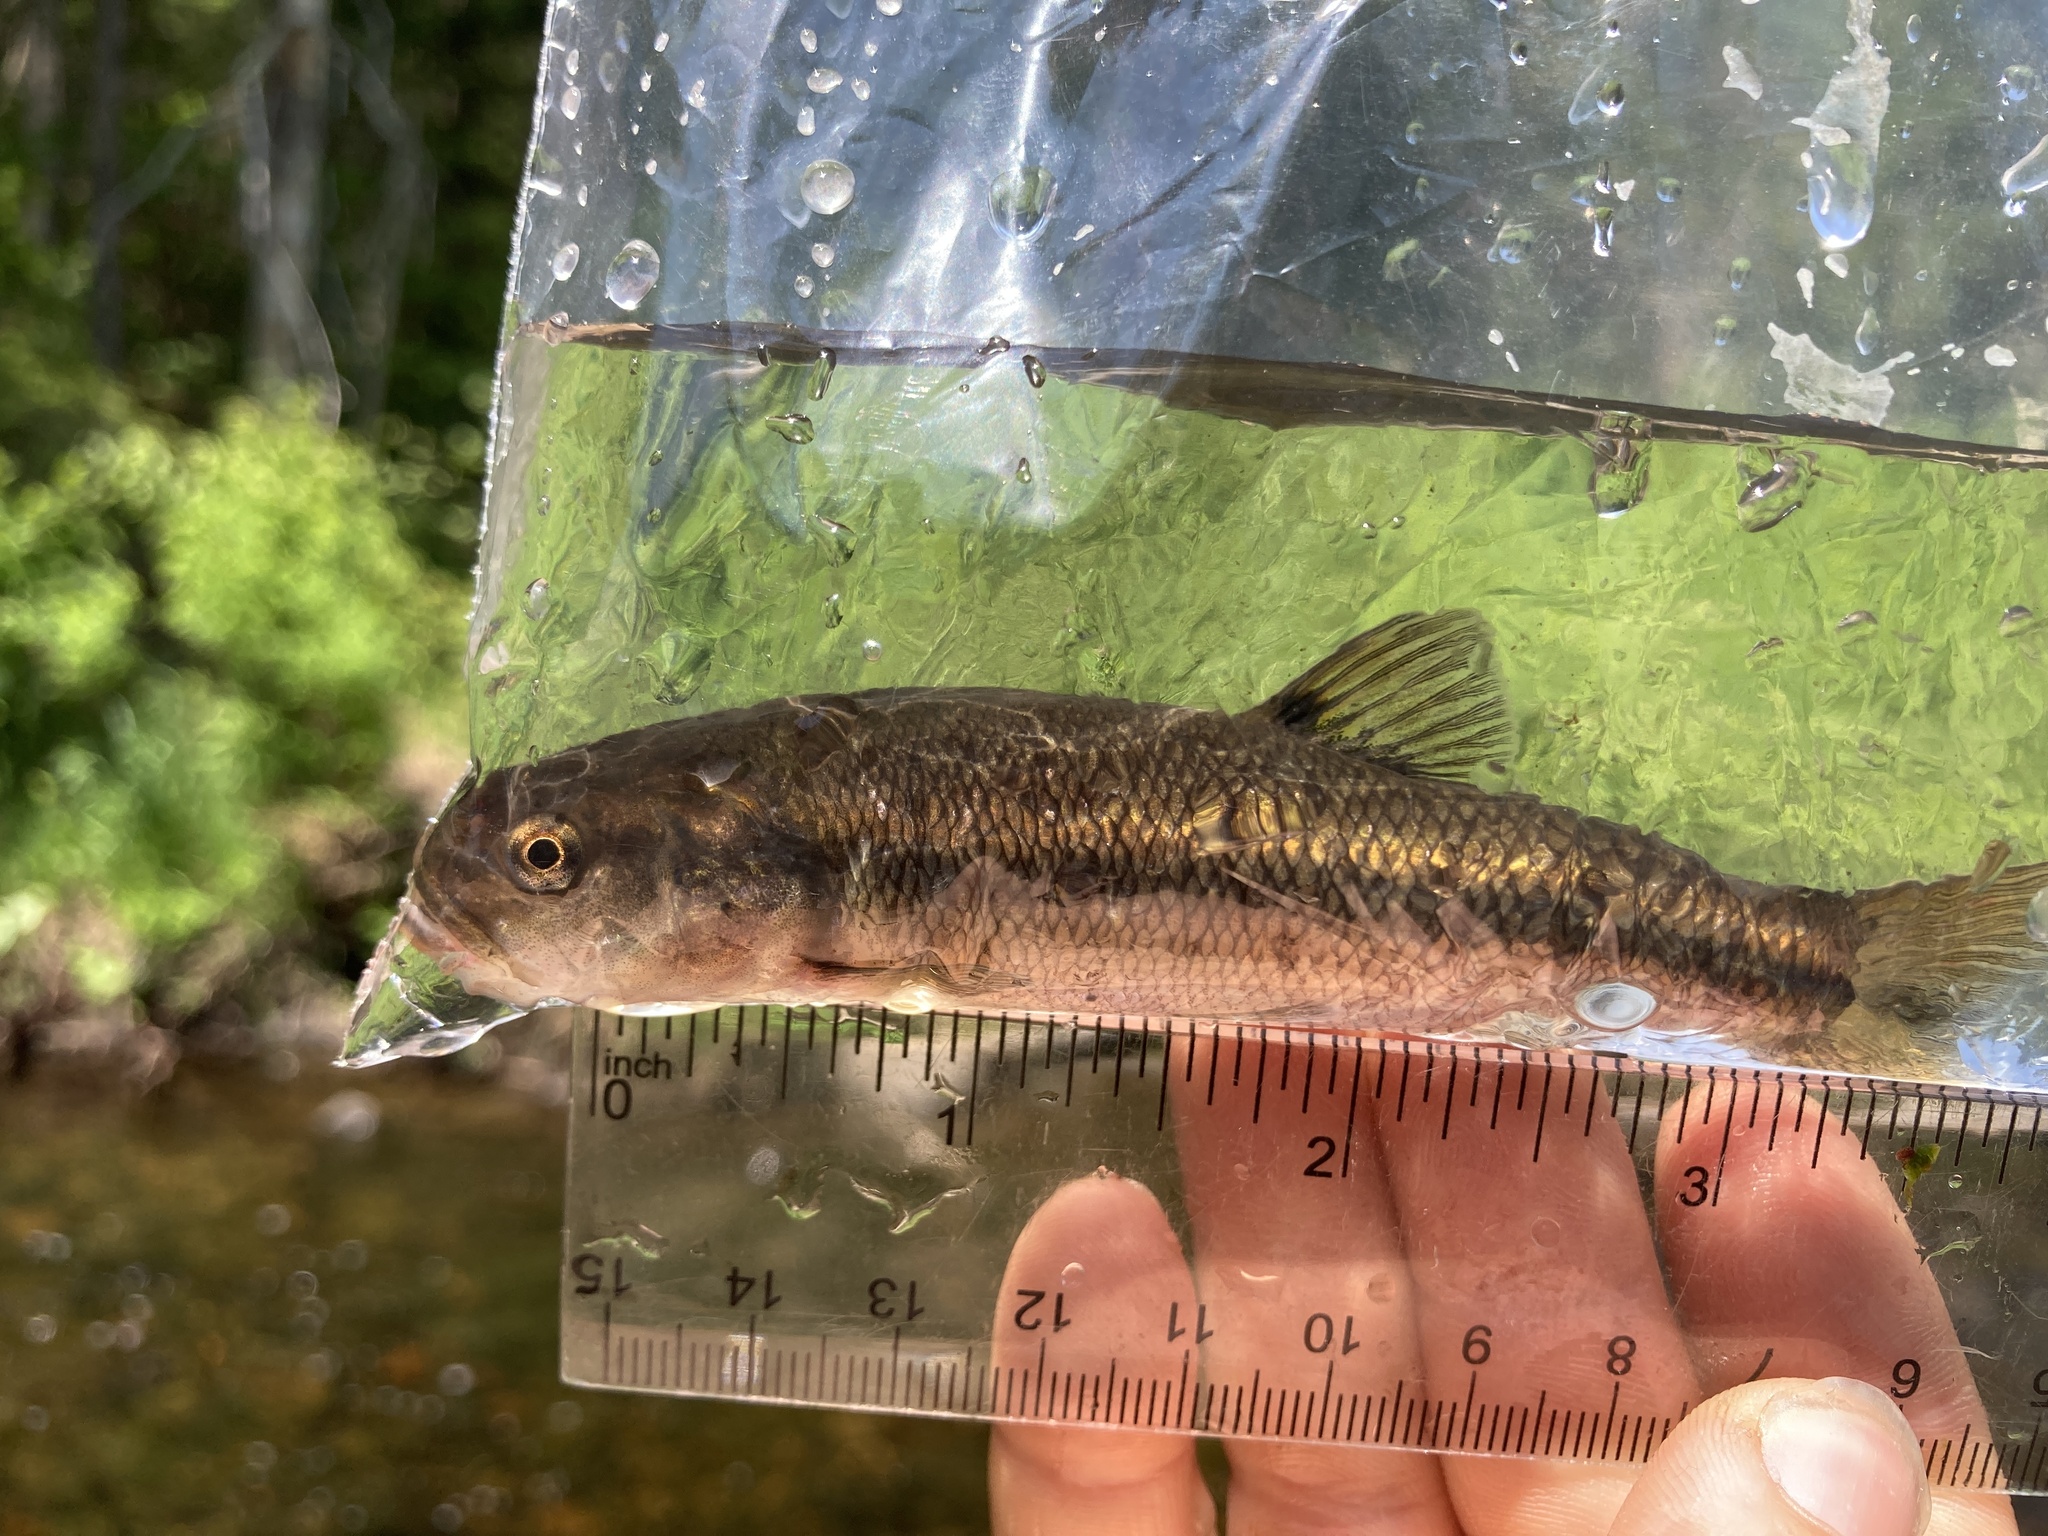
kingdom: Animalia
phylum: Chordata
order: Cypriniformes
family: Cyprinidae
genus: Semotilus
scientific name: Semotilus atromaculatus
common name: Creek chub
